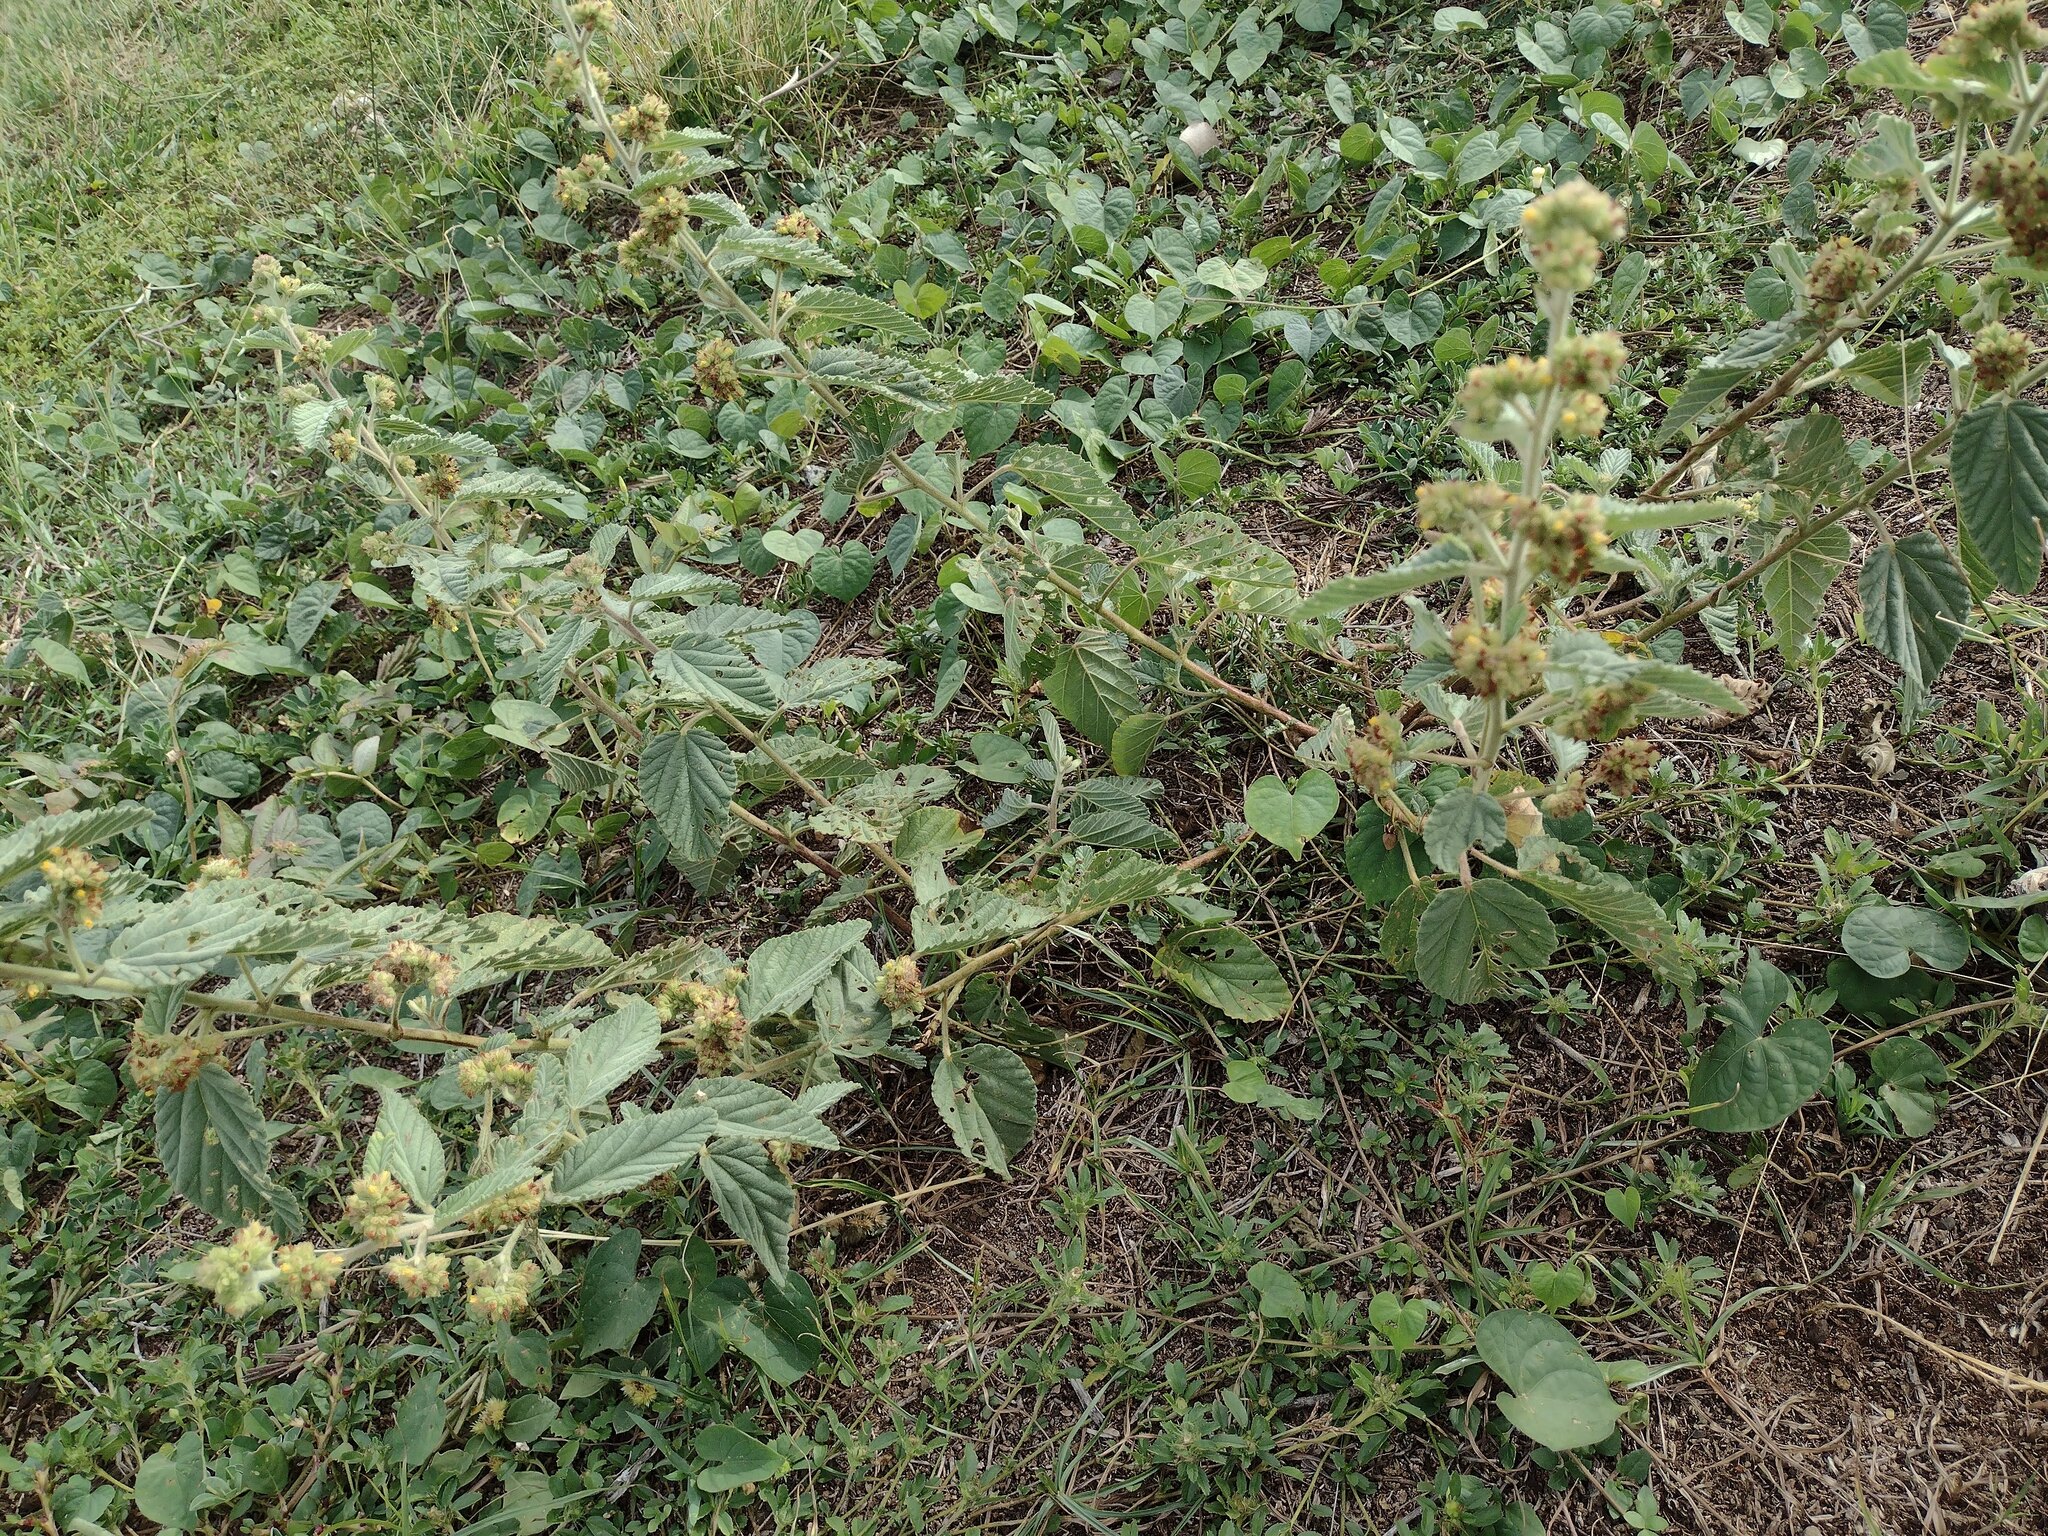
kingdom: Plantae
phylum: Tracheophyta
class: Magnoliopsida
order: Malvales
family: Malvaceae
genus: Waltheria
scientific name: Waltheria indica
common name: Leather-coat
